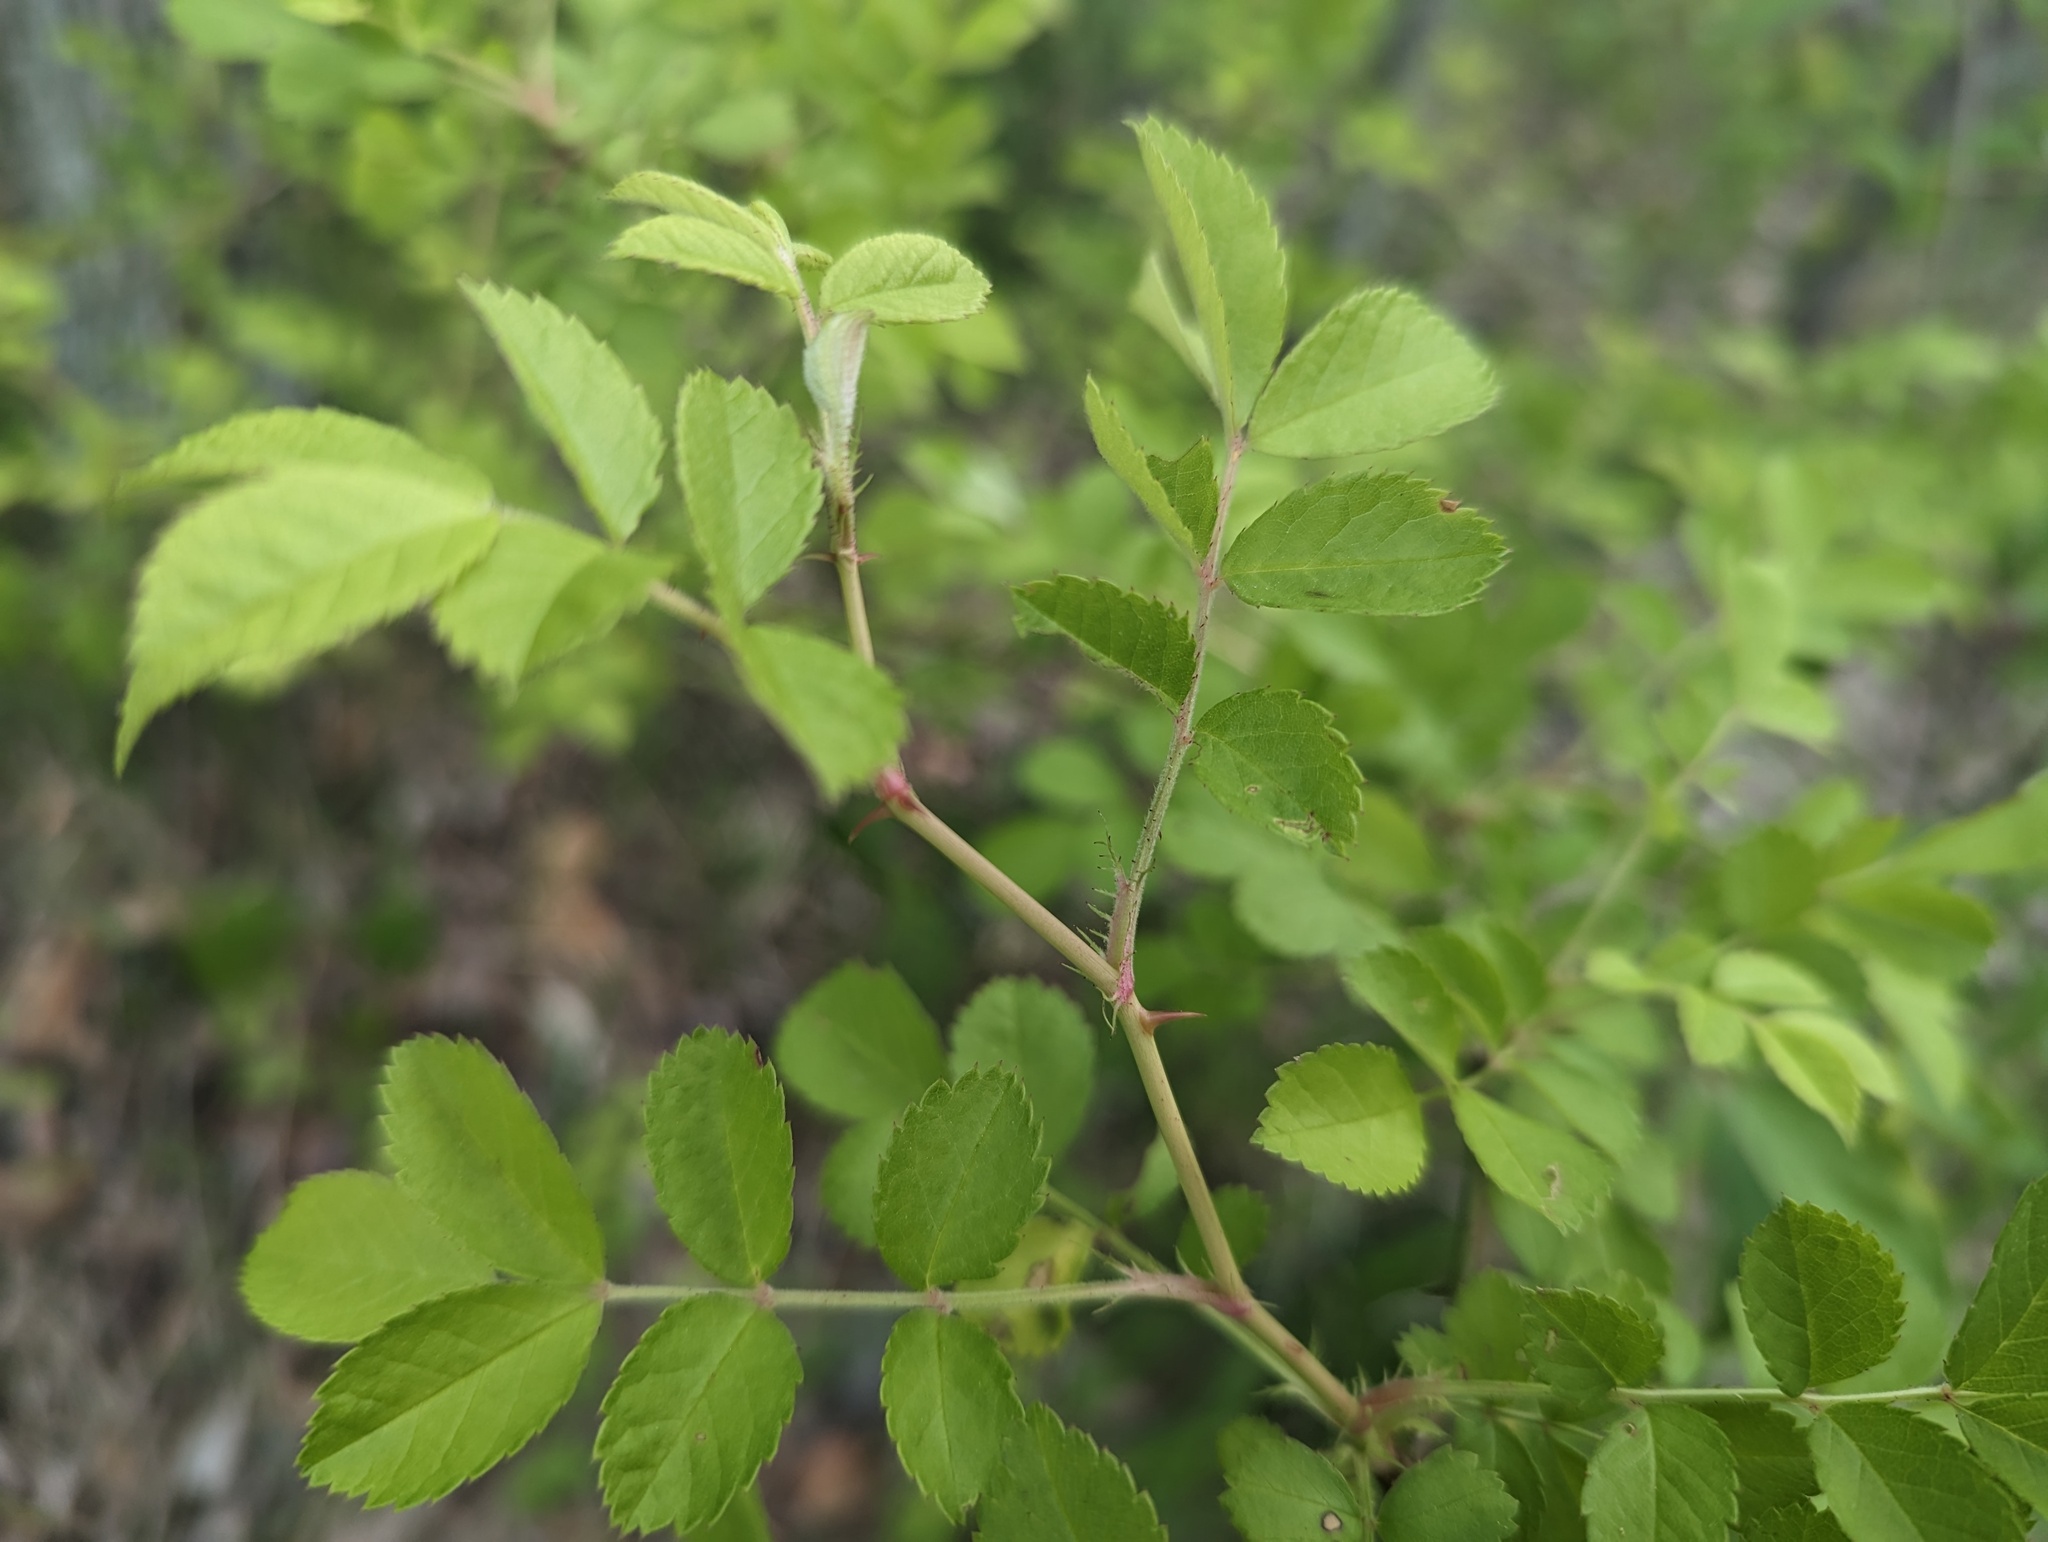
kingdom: Plantae
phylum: Tracheophyta
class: Magnoliopsida
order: Rosales
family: Rosaceae
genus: Rosa
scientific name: Rosa multiflora
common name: Multiflora rose
